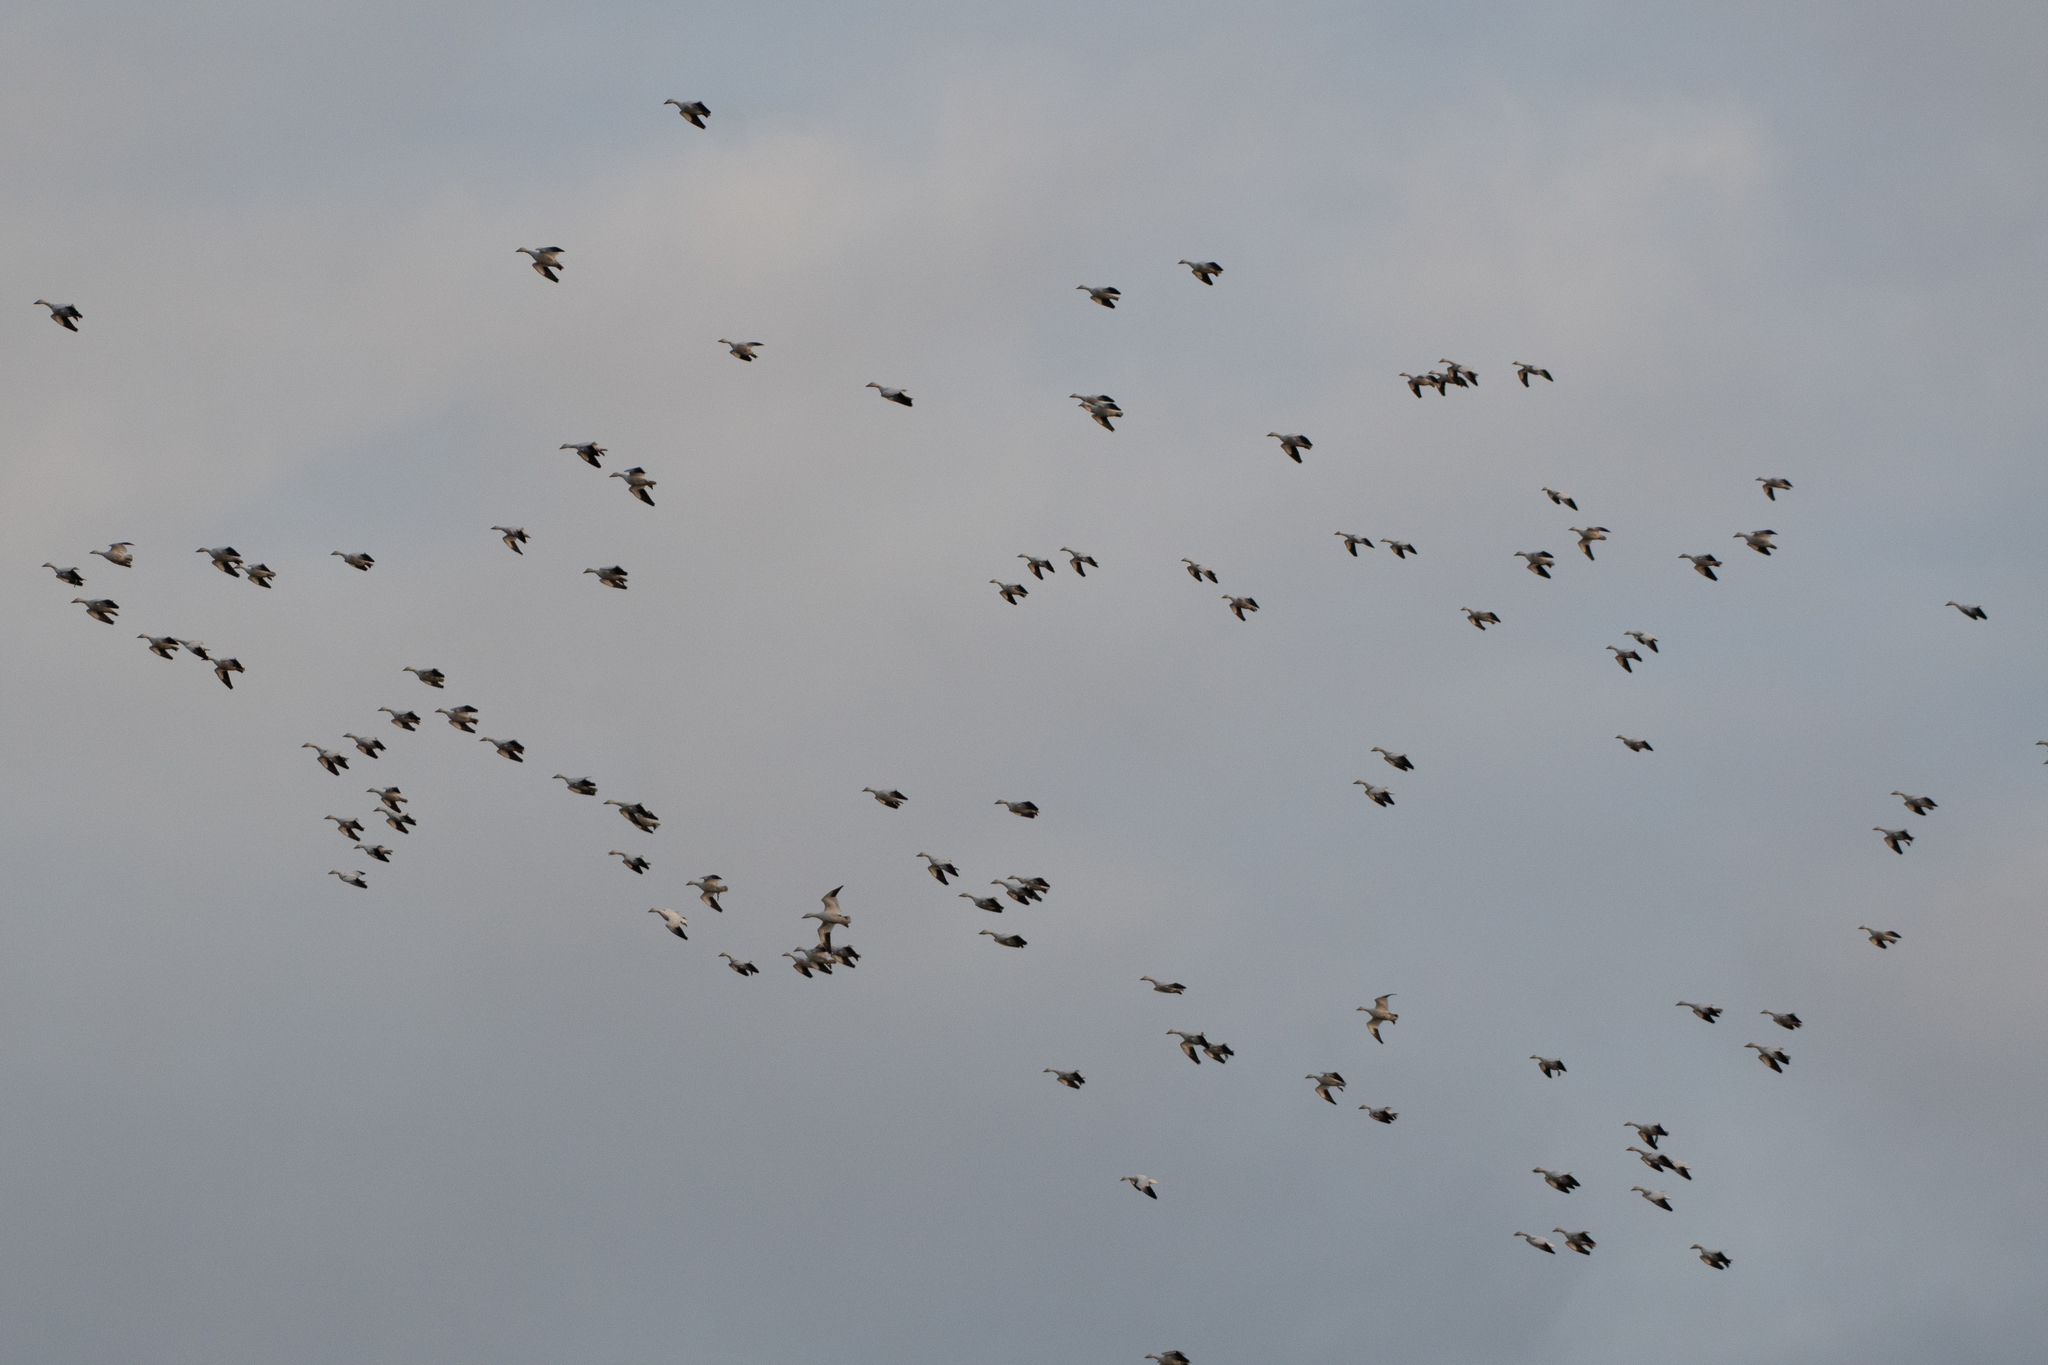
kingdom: Animalia
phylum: Chordata
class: Aves
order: Anseriformes
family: Anatidae
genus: Anser
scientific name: Anser caerulescens
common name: Snow goose
